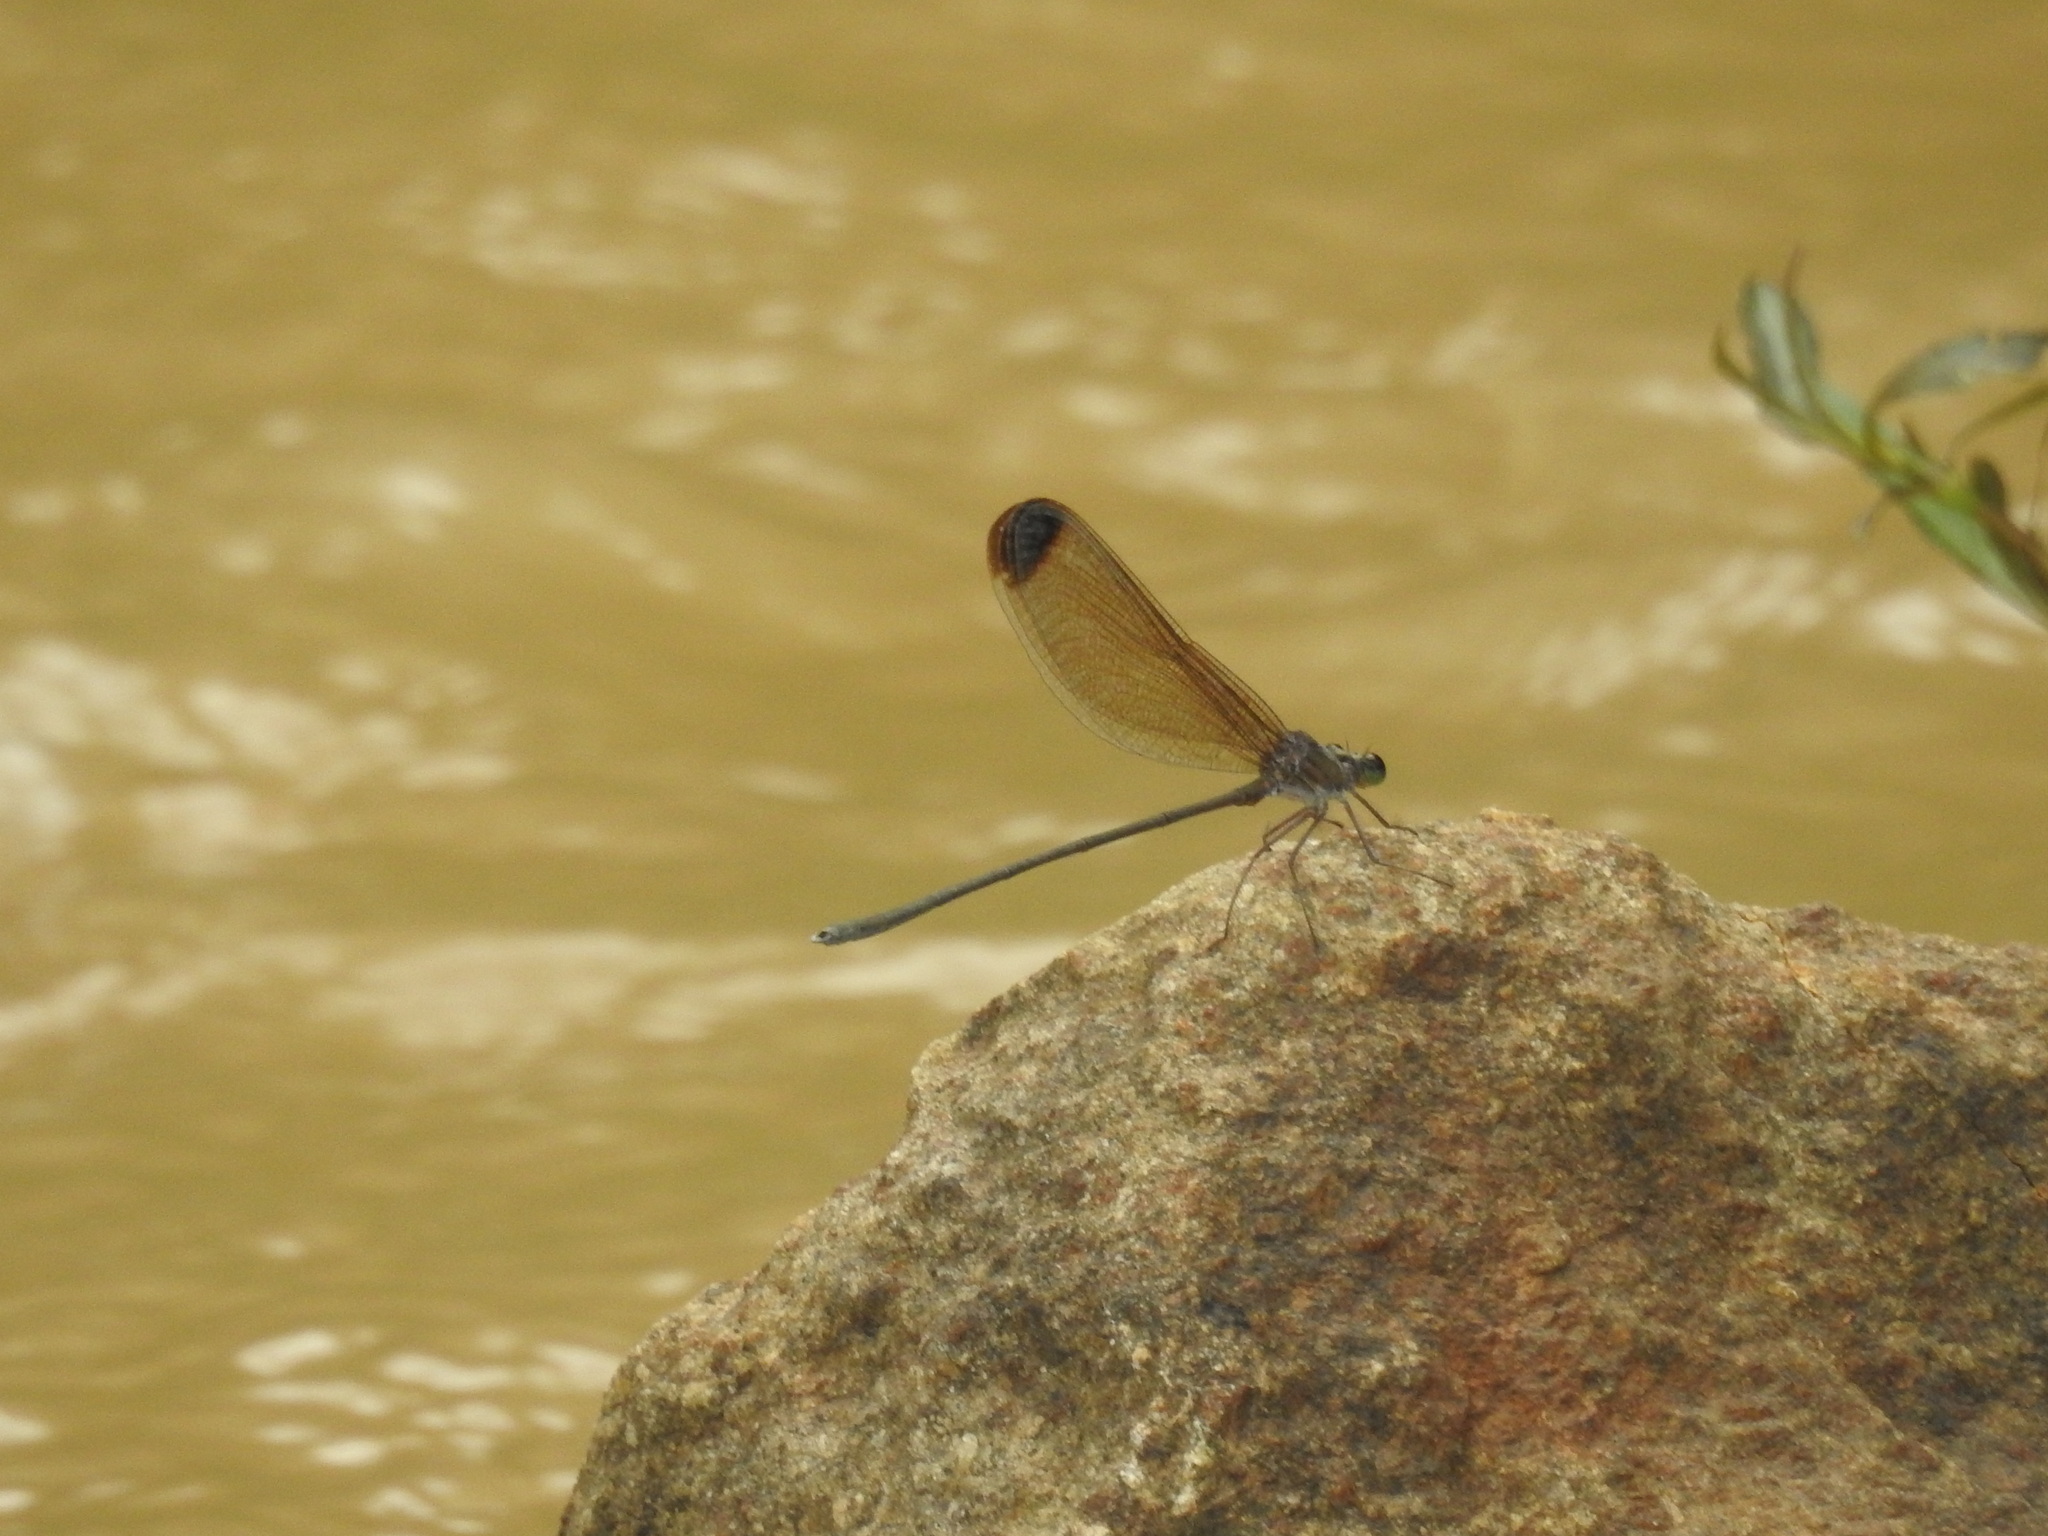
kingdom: Animalia
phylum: Arthropoda
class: Insecta
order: Odonata
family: Calopterygidae
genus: Vestalis
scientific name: Vestalis apicalis
